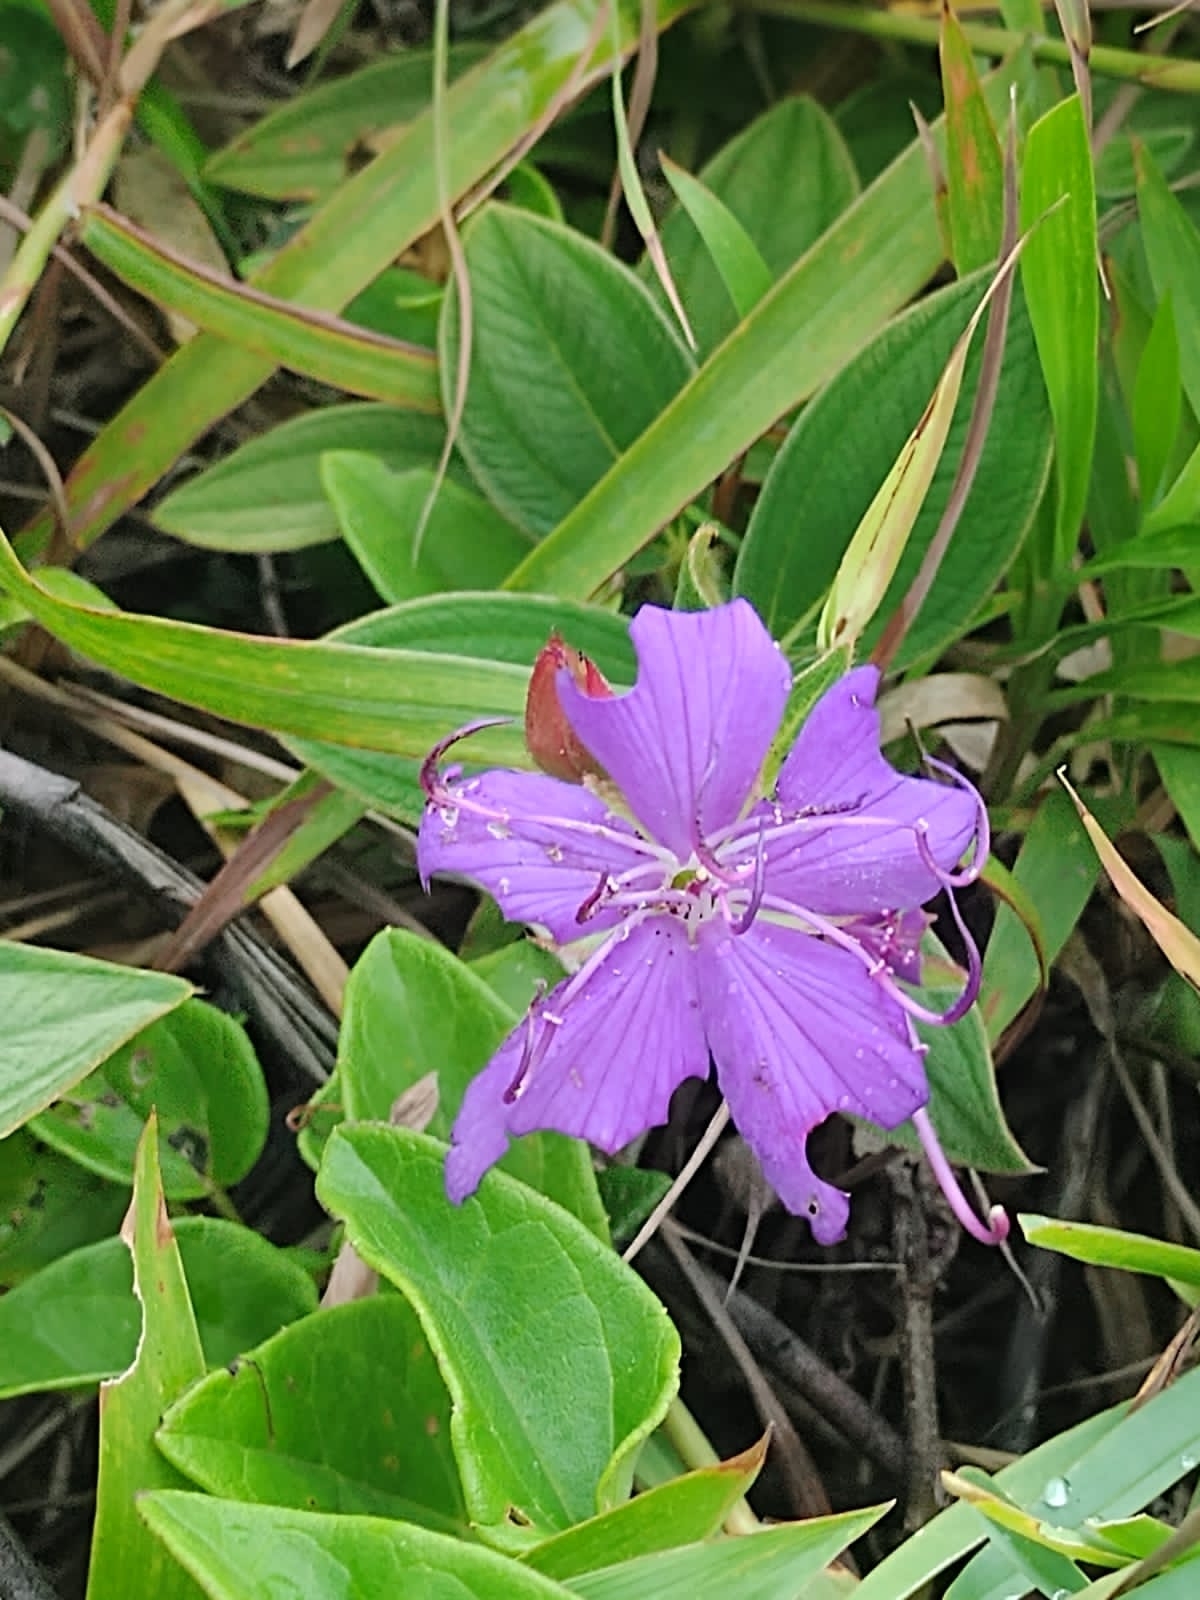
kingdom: Plantae
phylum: Tracheophyta
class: Magnoliopsida
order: Myrtales
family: Melastomataceae
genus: Pleroma
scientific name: Pleroma urvilleanum
